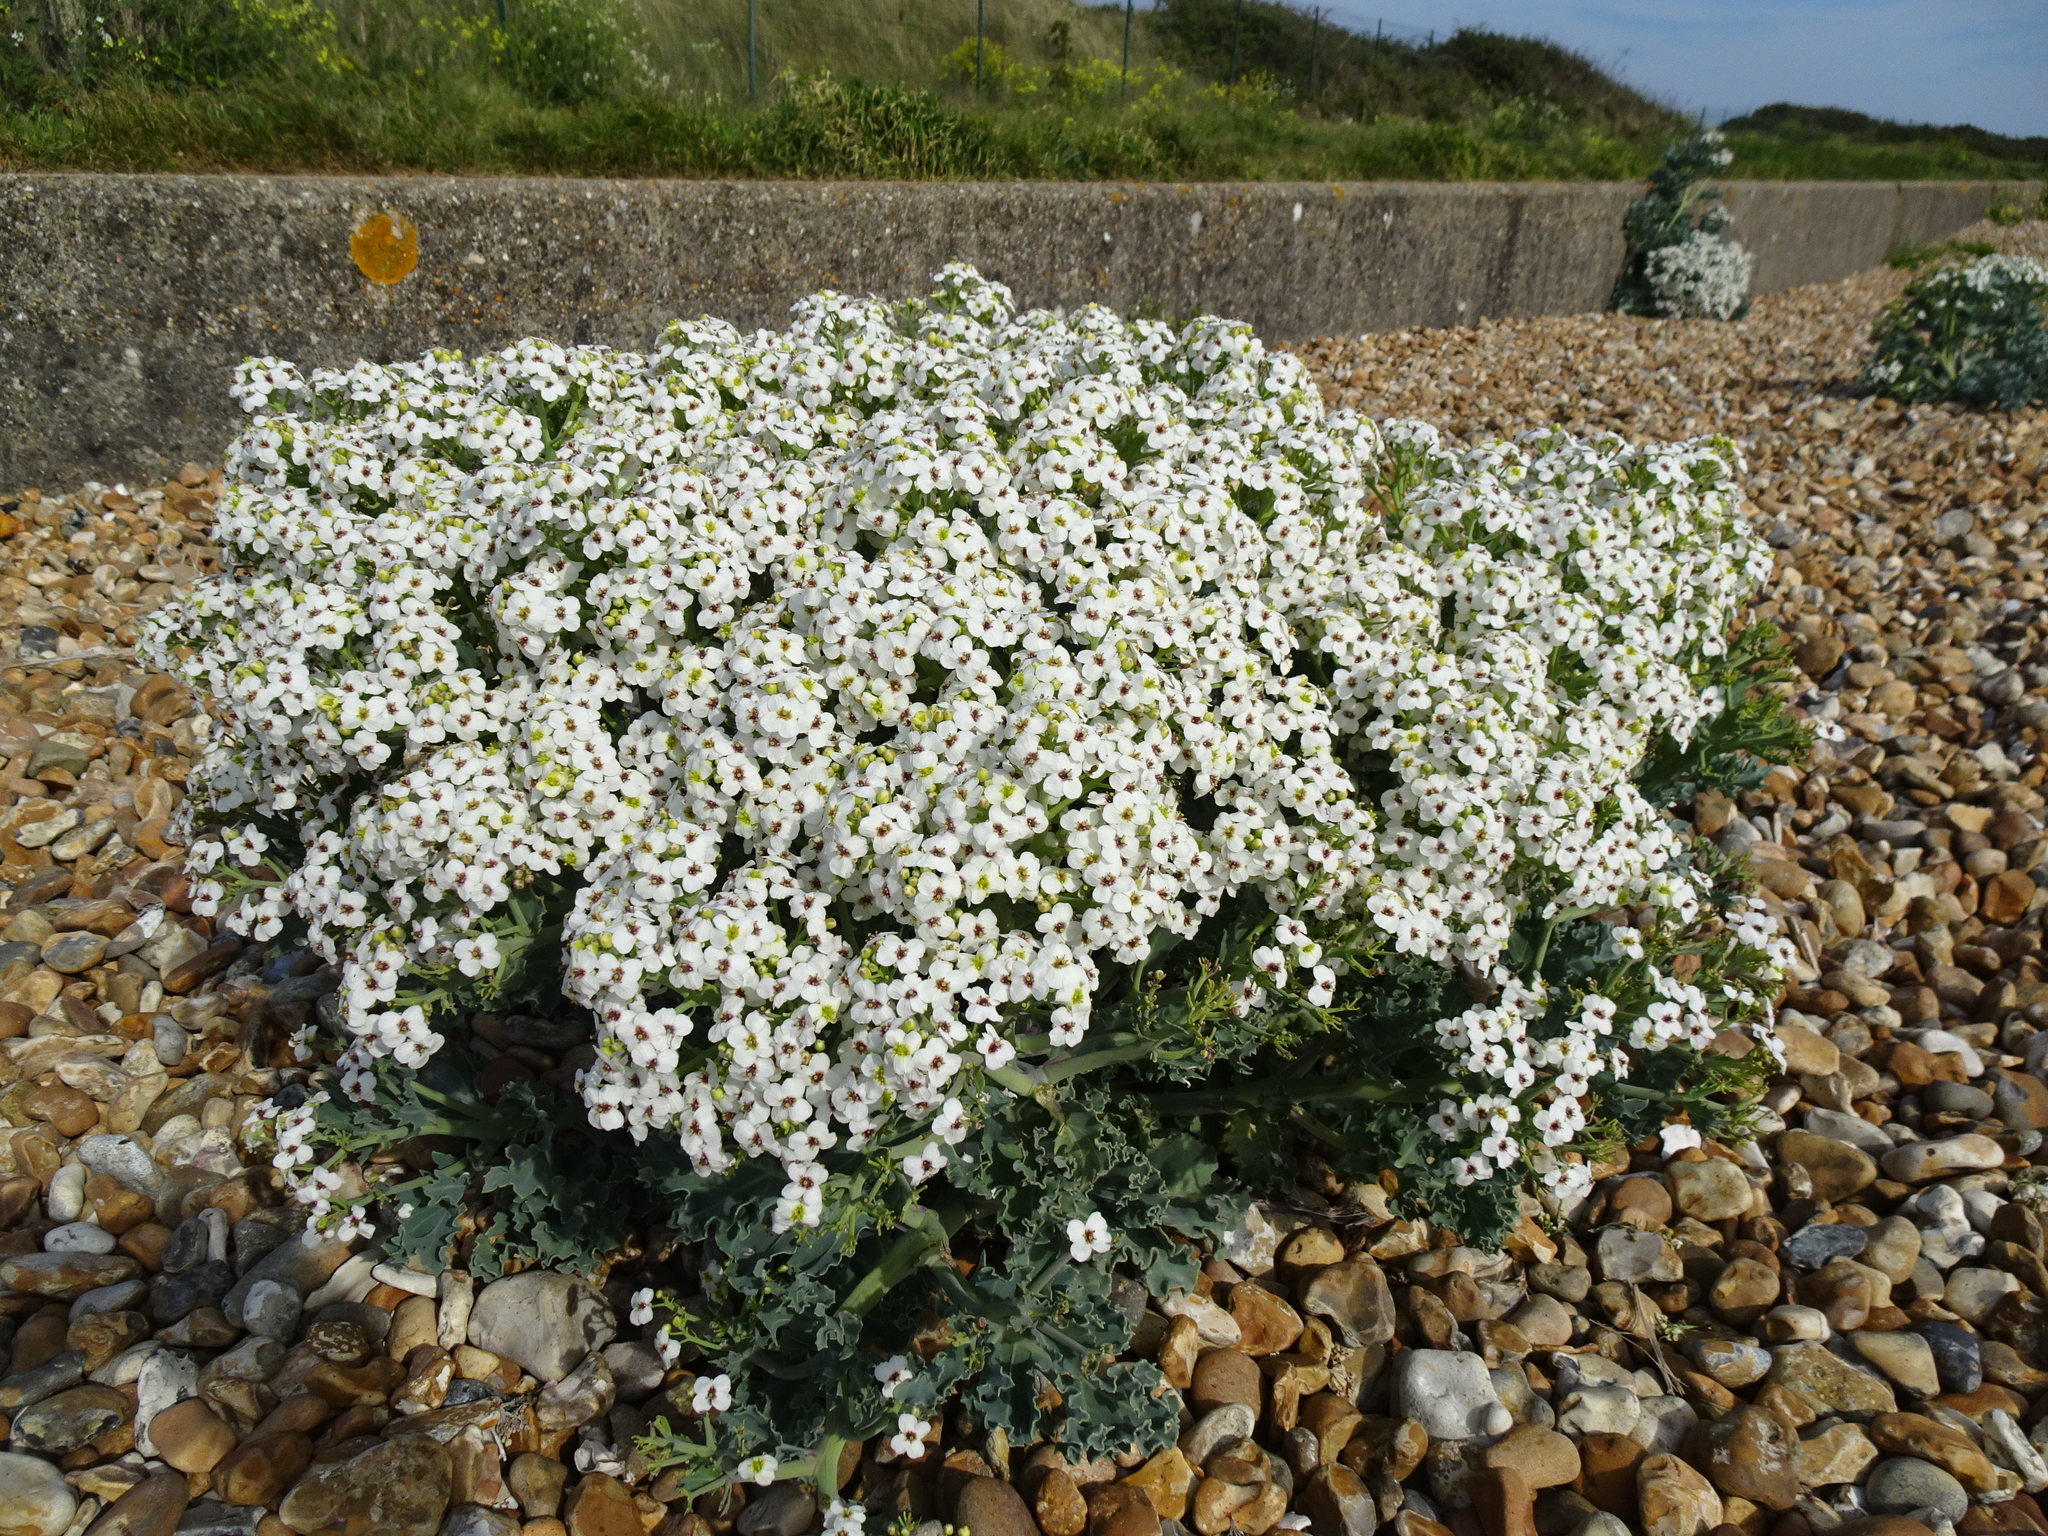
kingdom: Plantae
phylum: Tracheophyta
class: Magnoliopsida
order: Brassicales
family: Brassicaceae
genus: Crambe
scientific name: Crambe maritima
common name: Sea-kale
